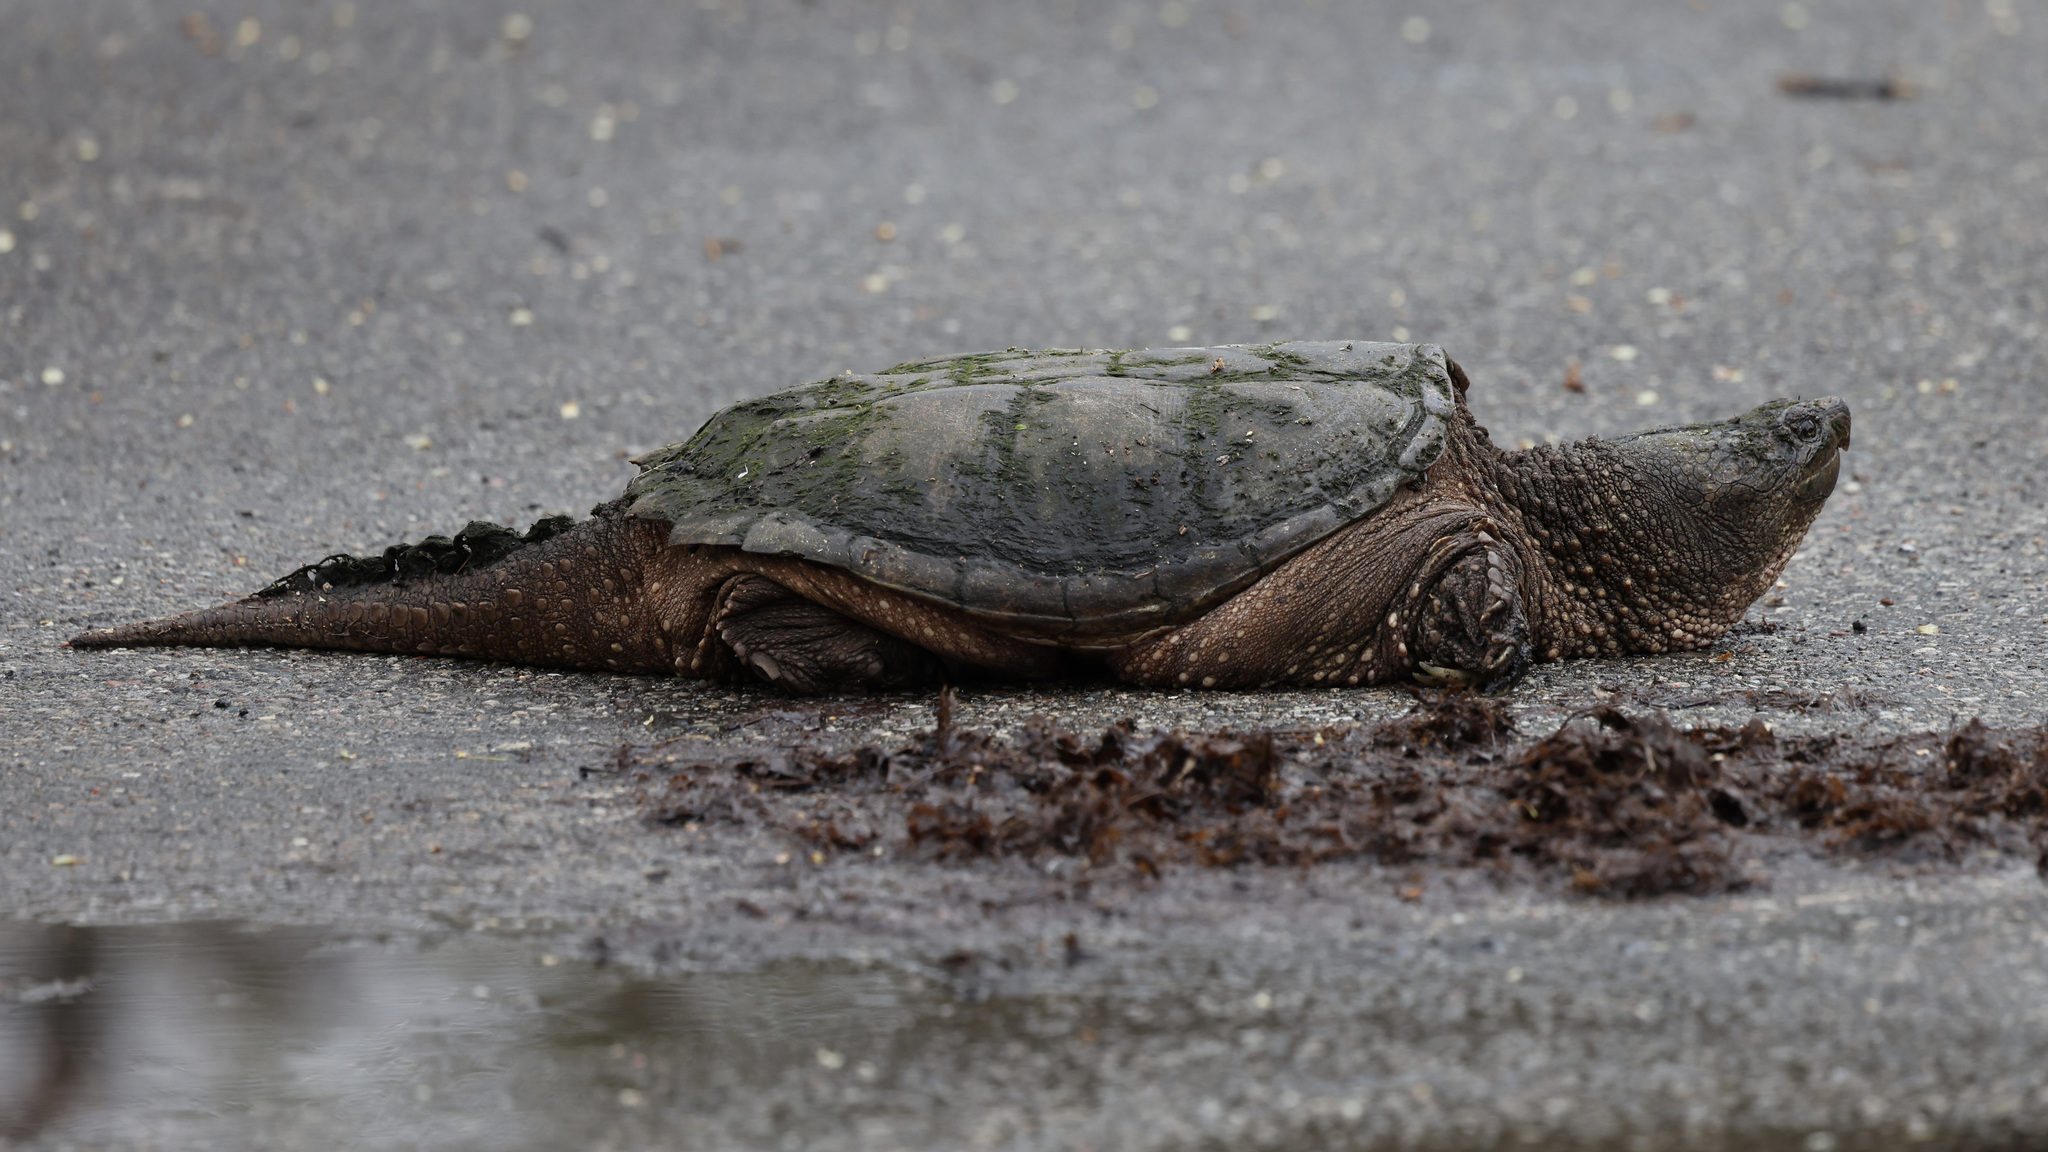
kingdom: Animalia
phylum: Chordata
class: Testudines
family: Chelydridae
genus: Chelydra
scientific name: Chelydra serpentina
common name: Common snapping turtle
